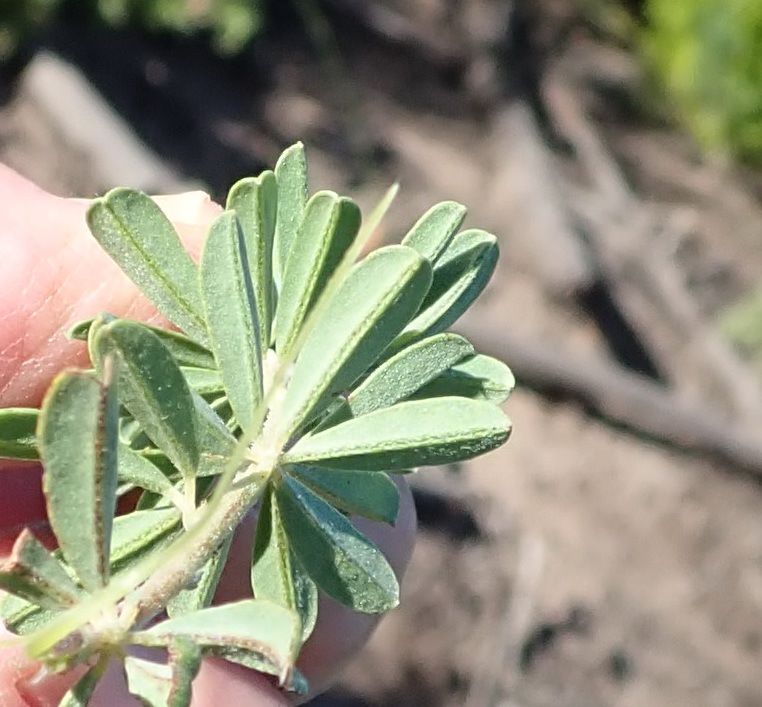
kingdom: Plantae
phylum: Tracheophyta
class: Magnoliopsida
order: Fabales
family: Fabaceae
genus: Indigofera
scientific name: Indigofera flabellata
